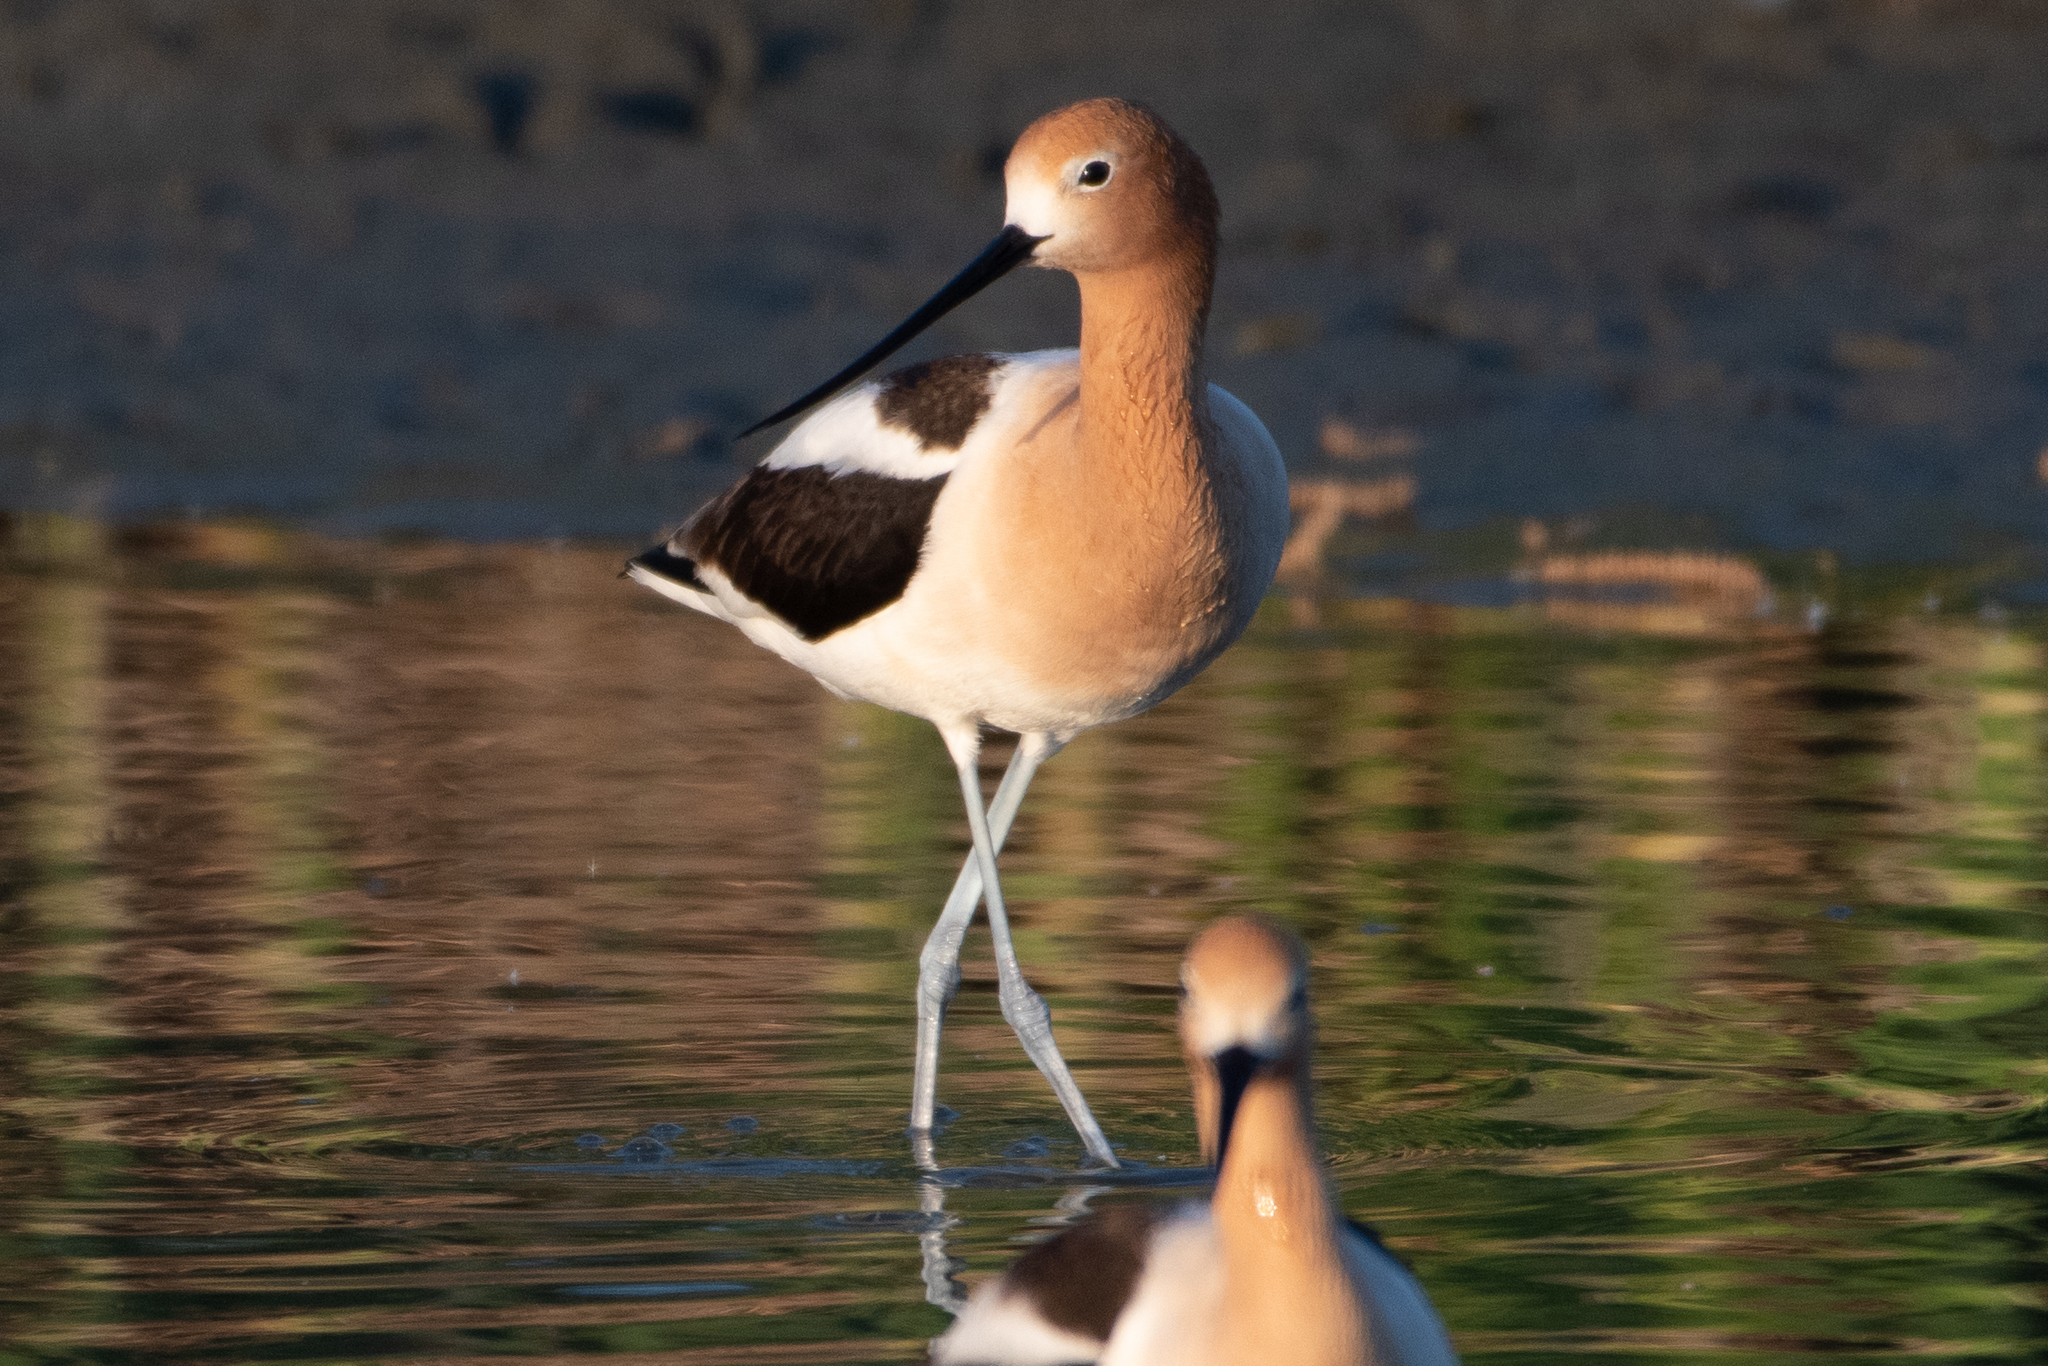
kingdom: Animalia
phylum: Chordata
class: Aves
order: Charadriiformes
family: Recurvirostridae
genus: Recurvirostra
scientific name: Recurvirostra americana
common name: American avocet
